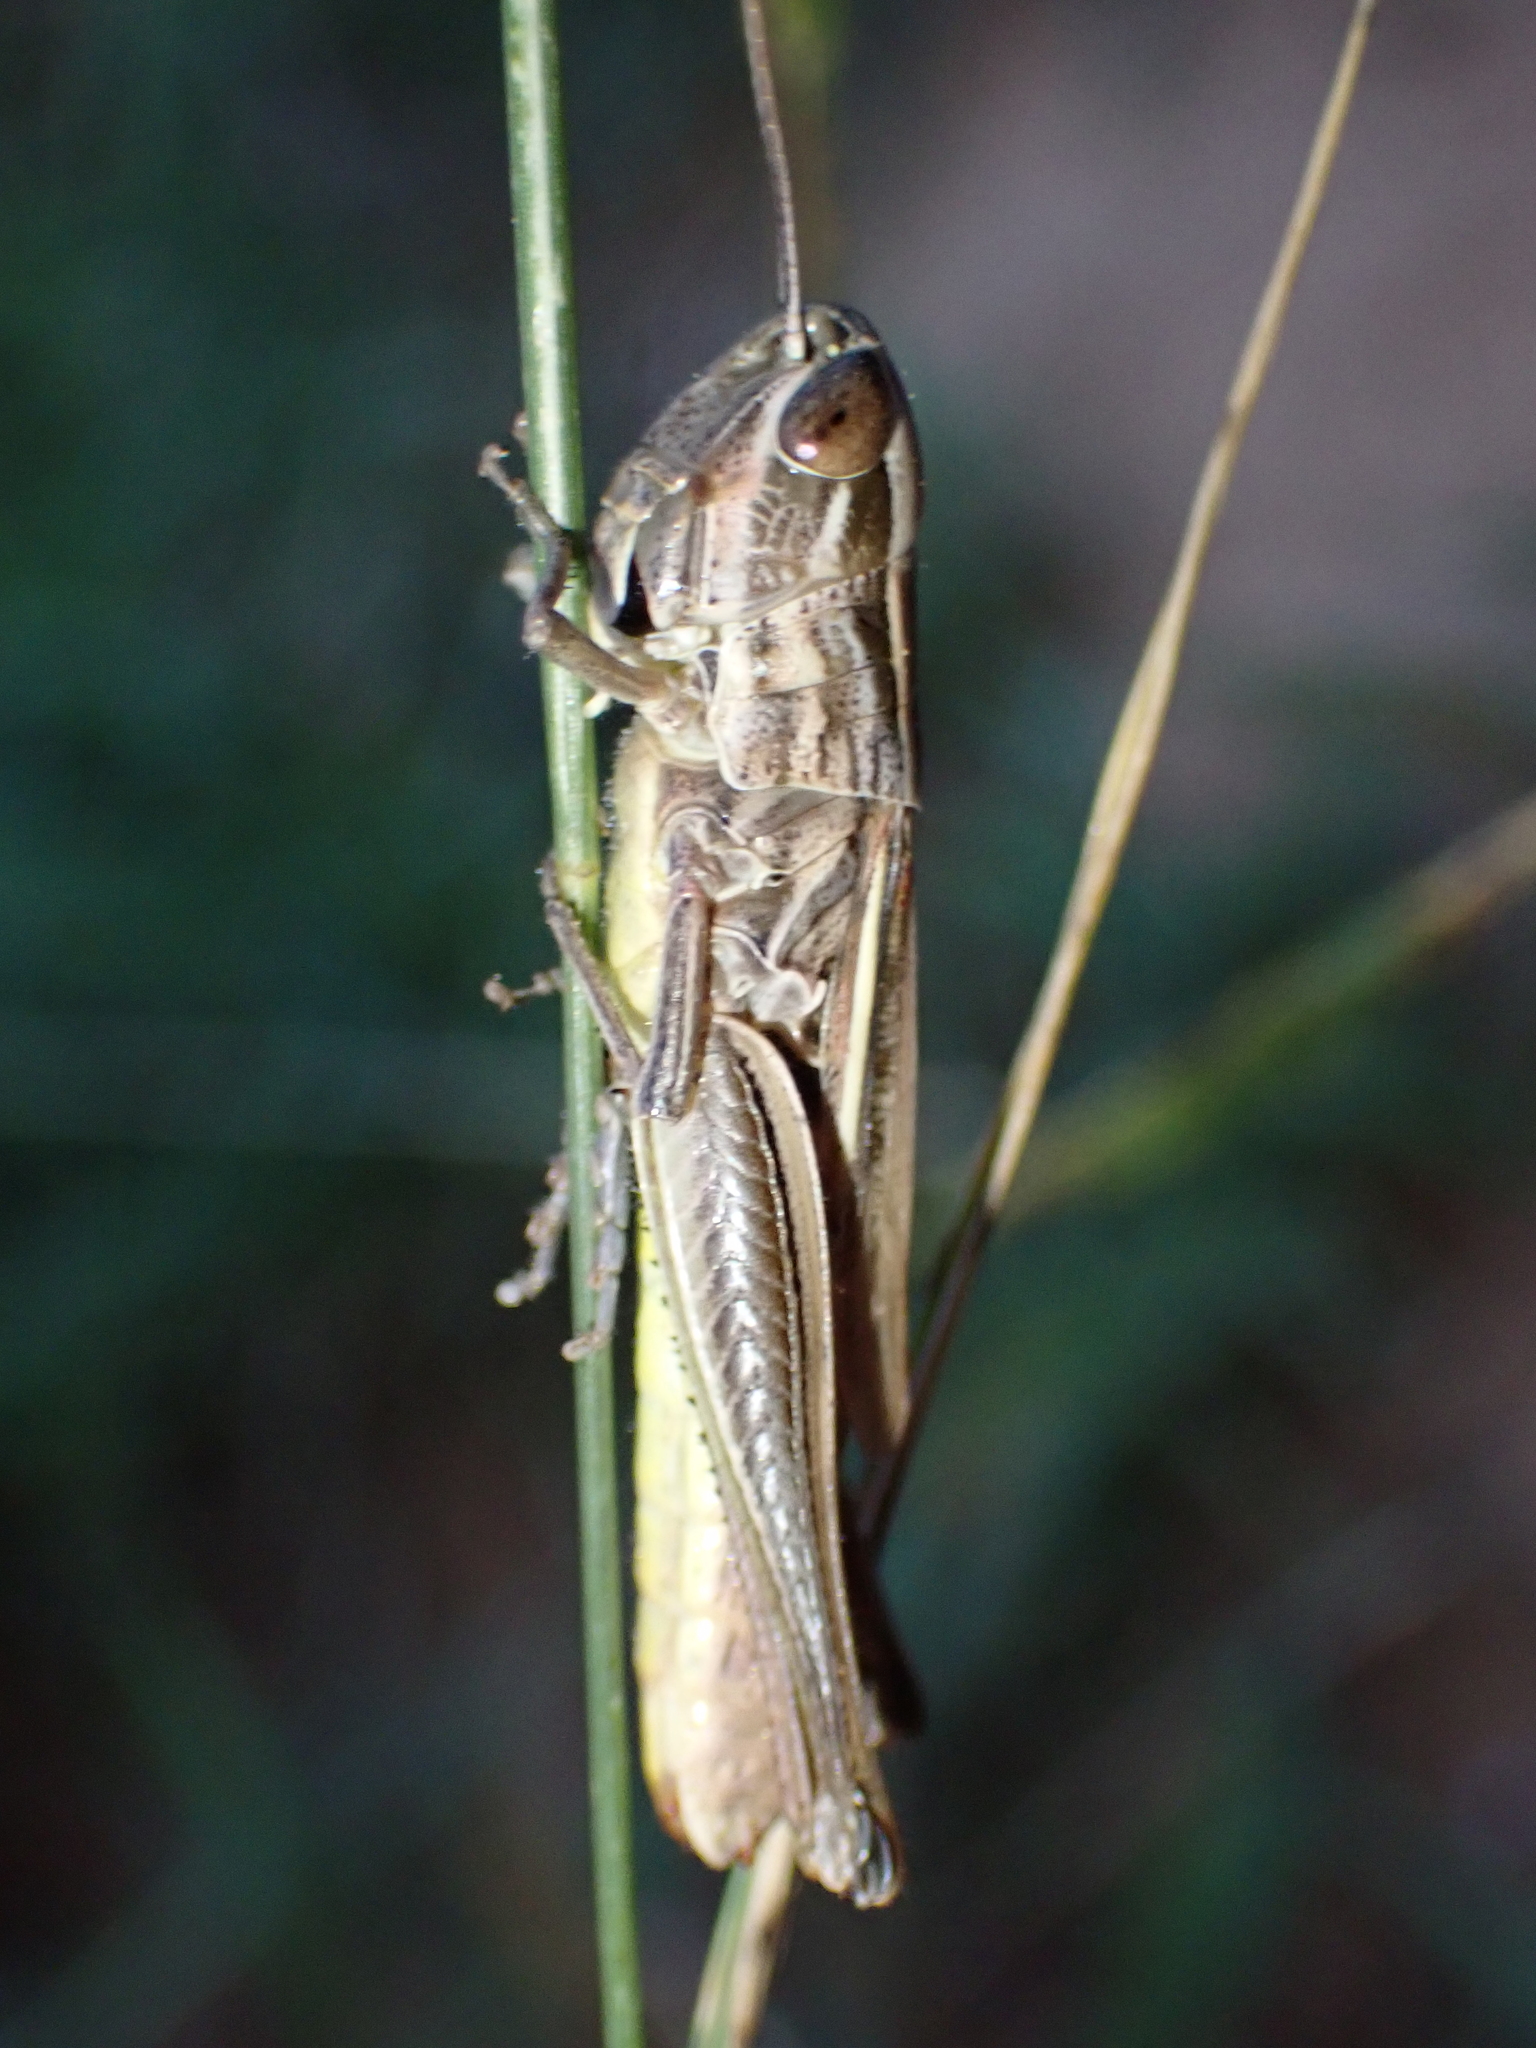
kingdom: Animalia
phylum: Arthropoda
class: Insecta
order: Orthoptera
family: Acrididae
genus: Euchorthippus
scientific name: Euchorthippus declivus
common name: Common straw grasshopper
